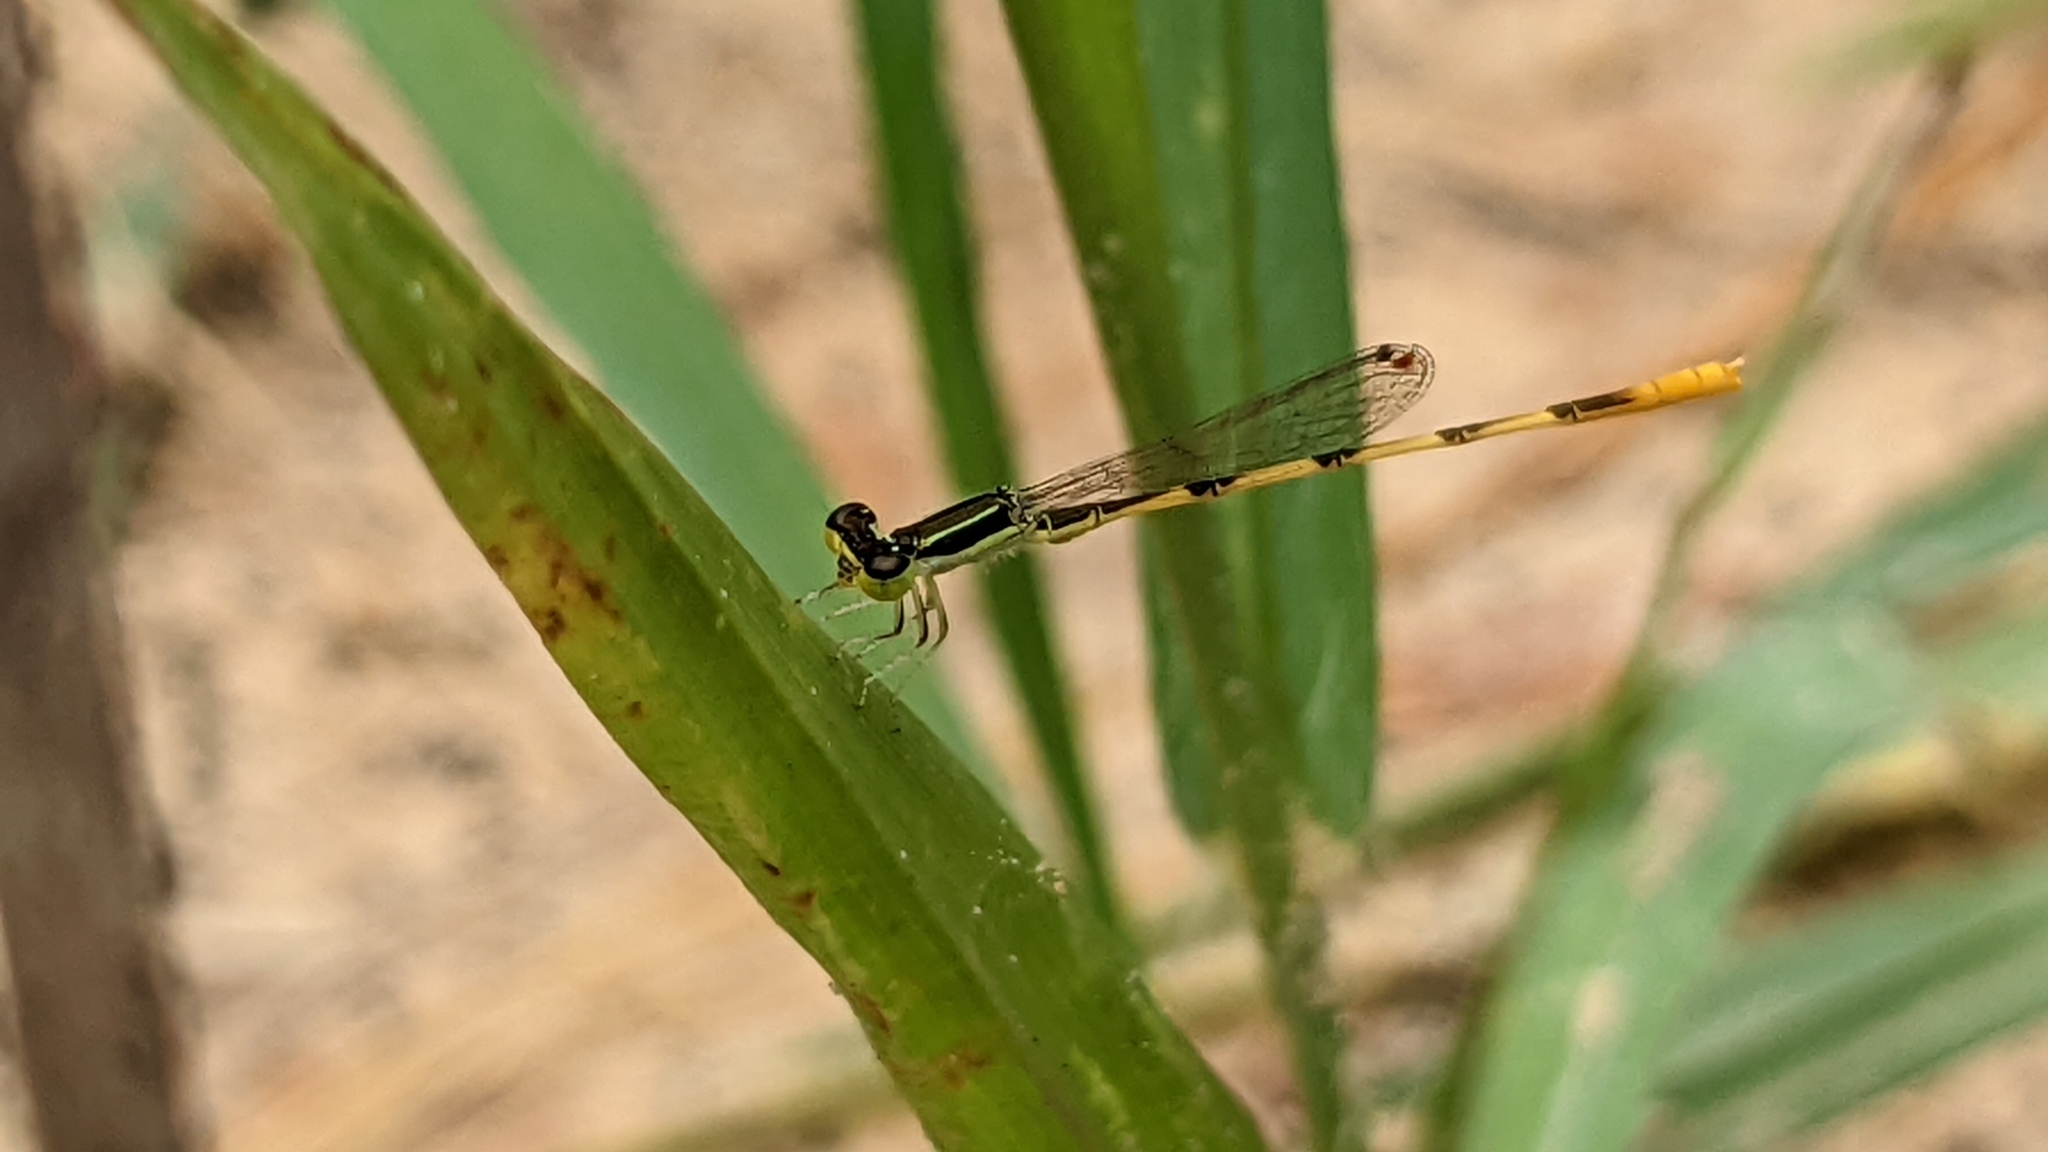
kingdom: Animalia
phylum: Arthropoda
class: Insecta
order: Odonata
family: Coenagrionidae
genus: Ischnura
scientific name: Ischnura hastata
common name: Citrine forktail
